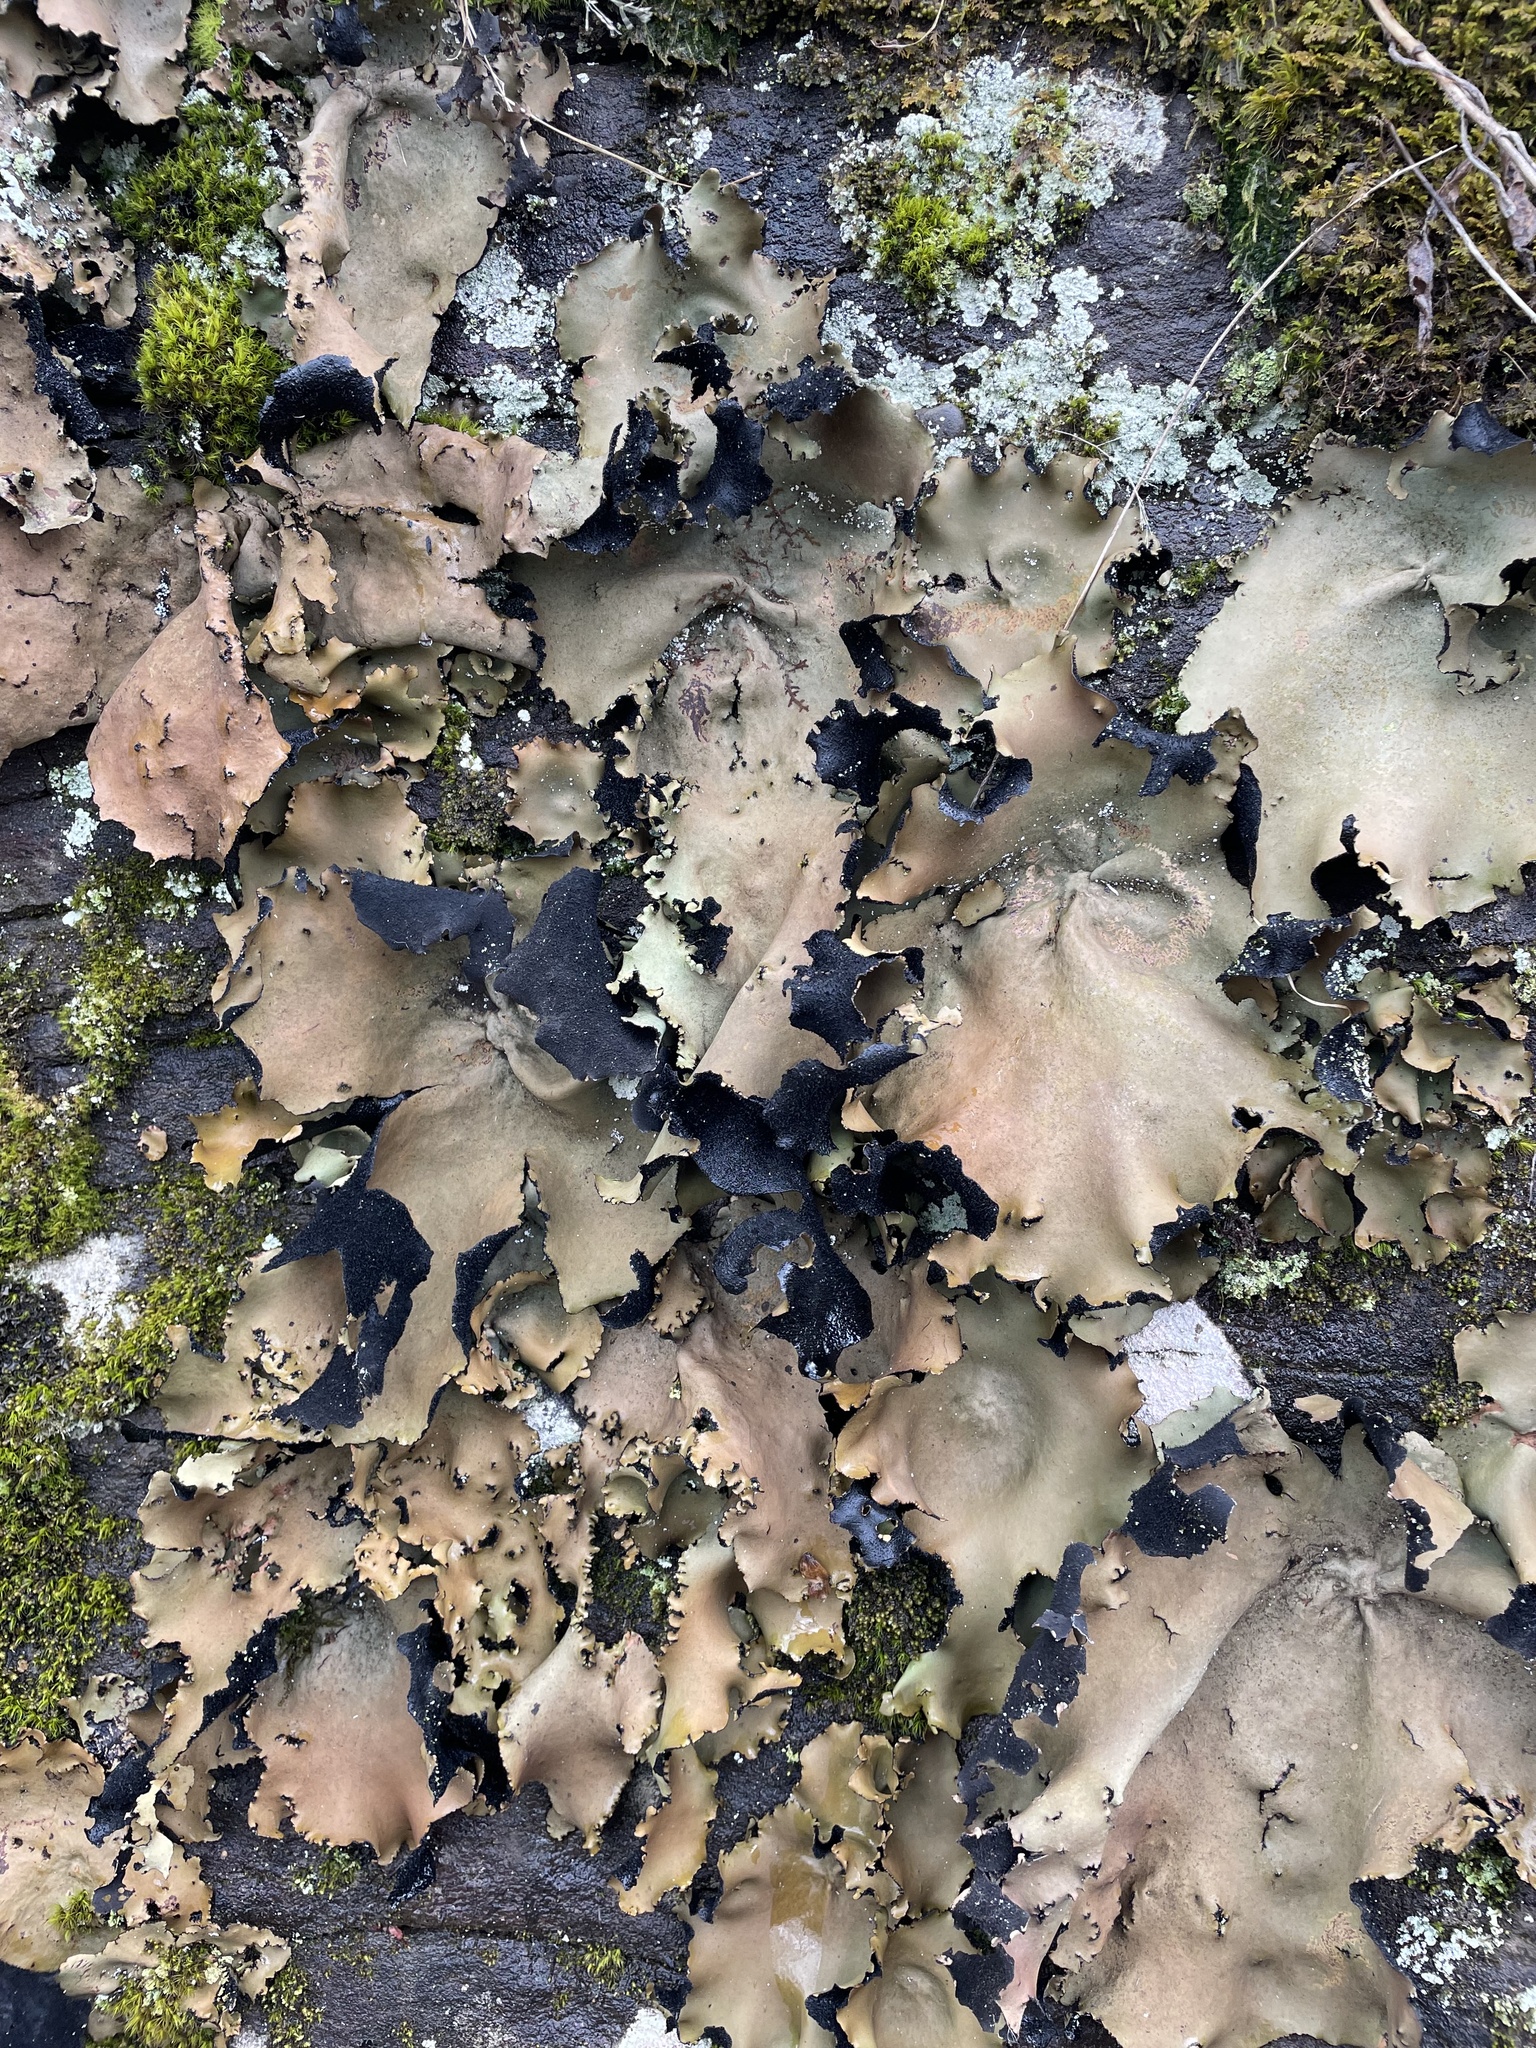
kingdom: Fungi
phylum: Ascomycota
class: Lecanoromycetes
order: Umbilicariales
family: Umbilicariaceae
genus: Umbilicaria
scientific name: Umbilicaria mammulata
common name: Smooth rock tripe
